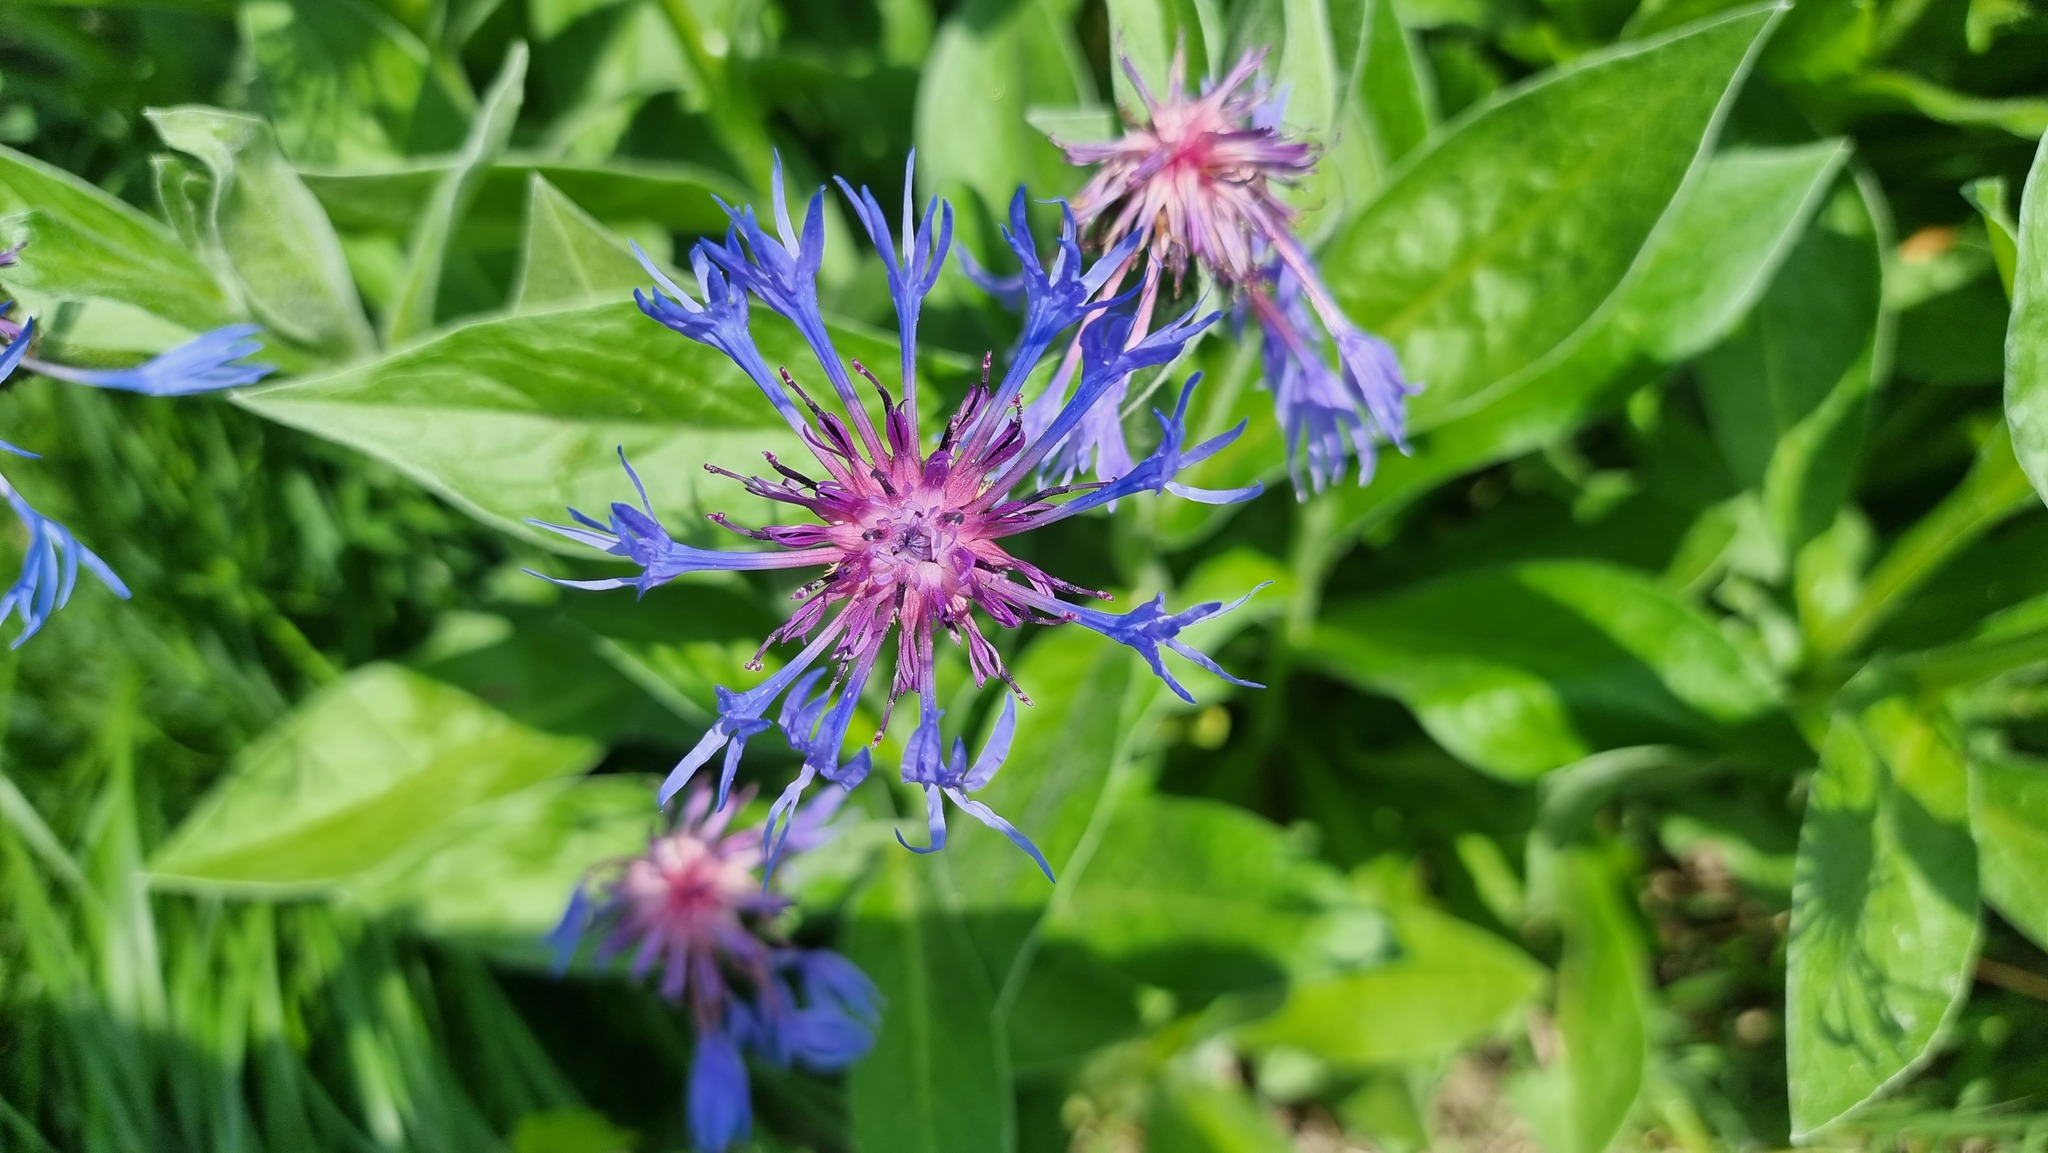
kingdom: Plantae
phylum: Tracheophyta
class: Magnoliopsida
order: Asterales
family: Asteraceae
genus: Centaurea
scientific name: Centaurea montana
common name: Perennial cornflower
